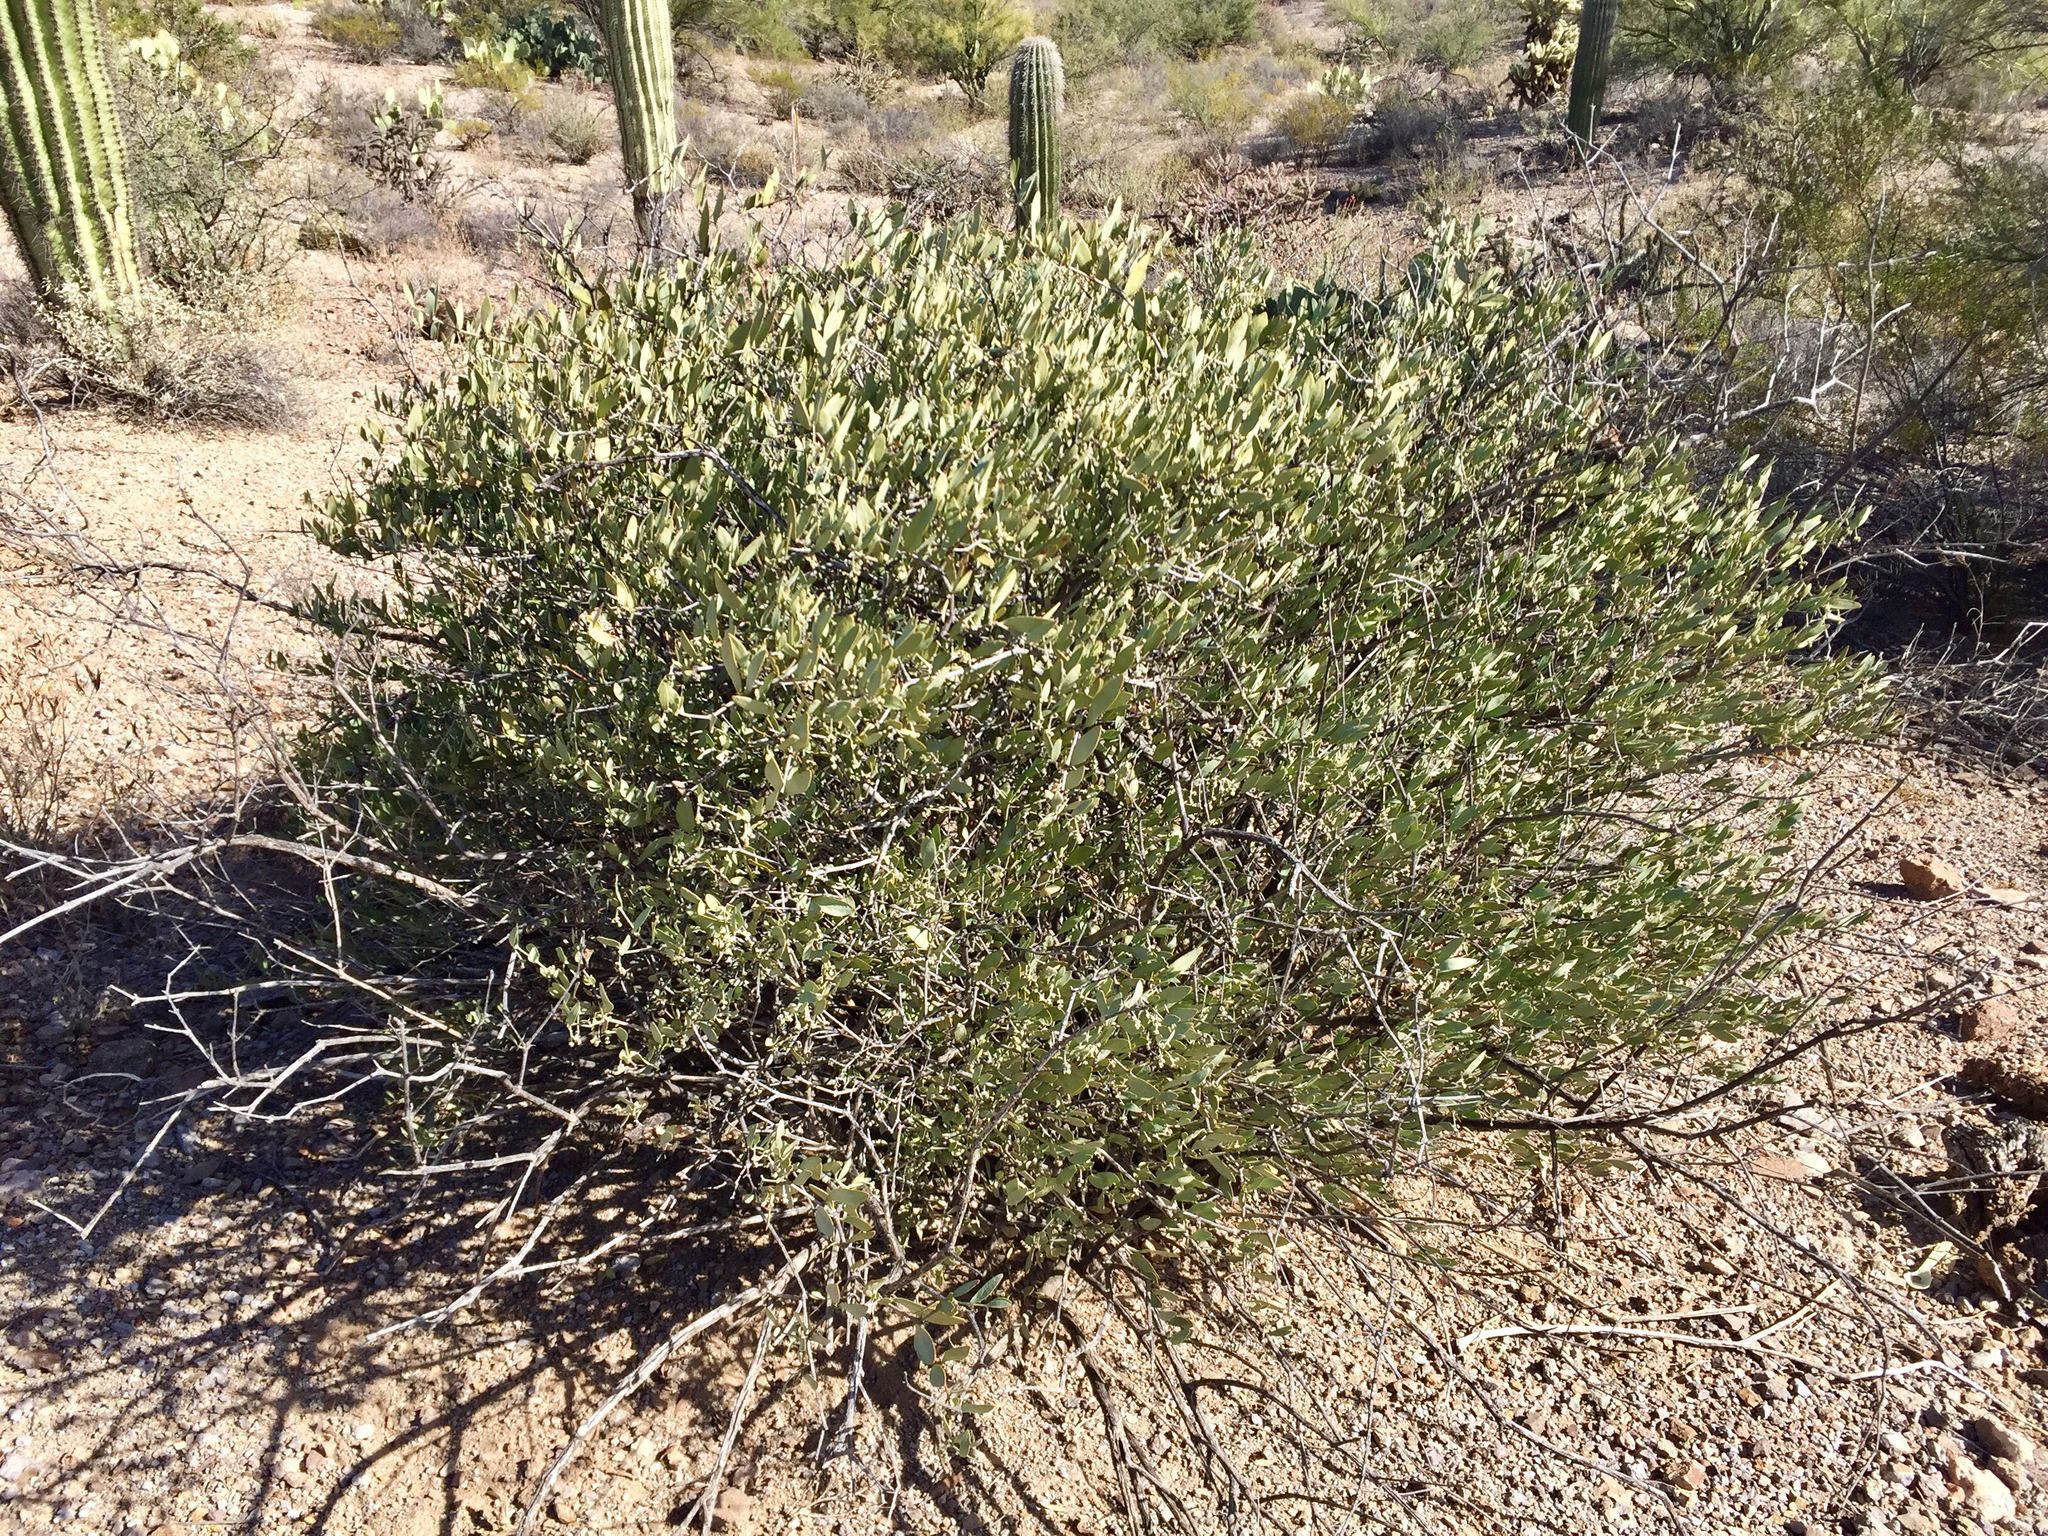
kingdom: Plantae
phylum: Tracheophyta
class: Magnoliopsida
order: Caryophyllales
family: Simmondsiaceae
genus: Simmondsia
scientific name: Simmondsia chinensis
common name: Jojoba
